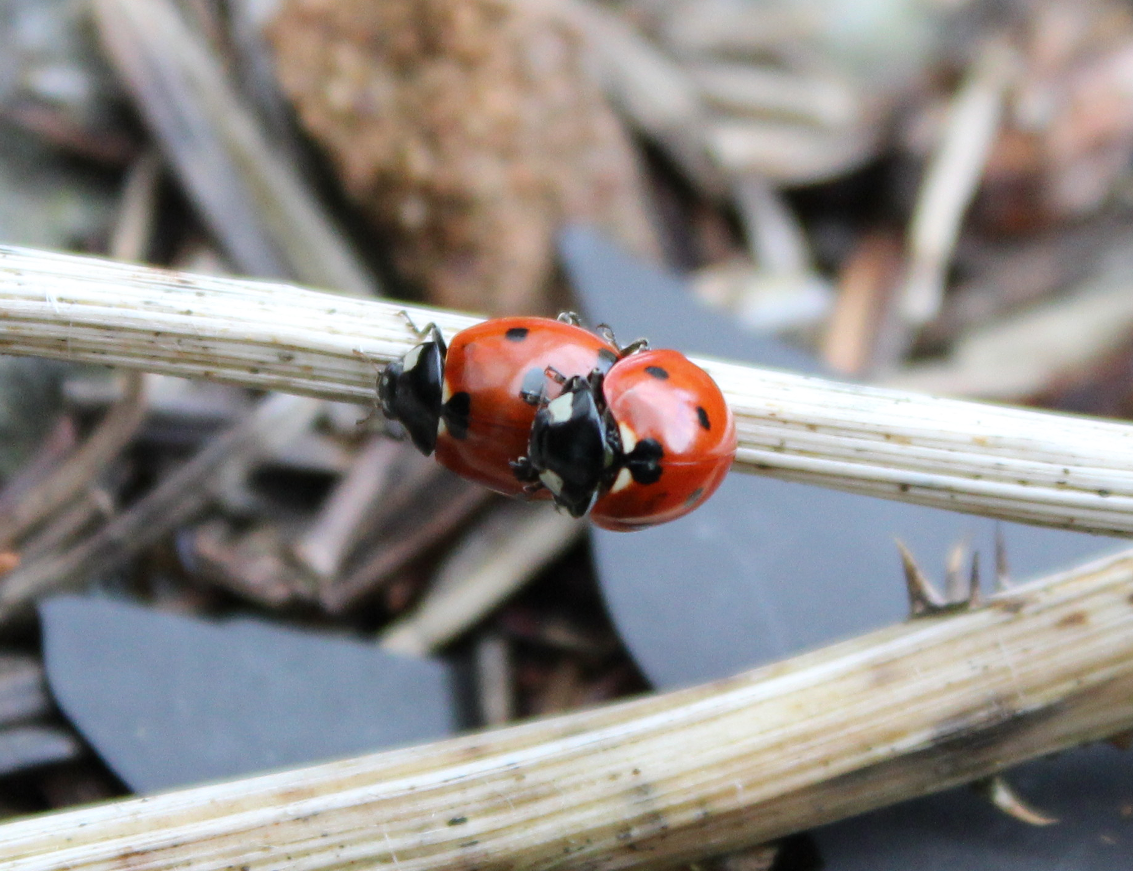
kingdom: Animalia
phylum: Arthropoda
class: Insecta
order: Coleoptera
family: Coccinellidae
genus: Coccinella
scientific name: Coccinella septempunctata
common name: Sevenspotted lady beetle
